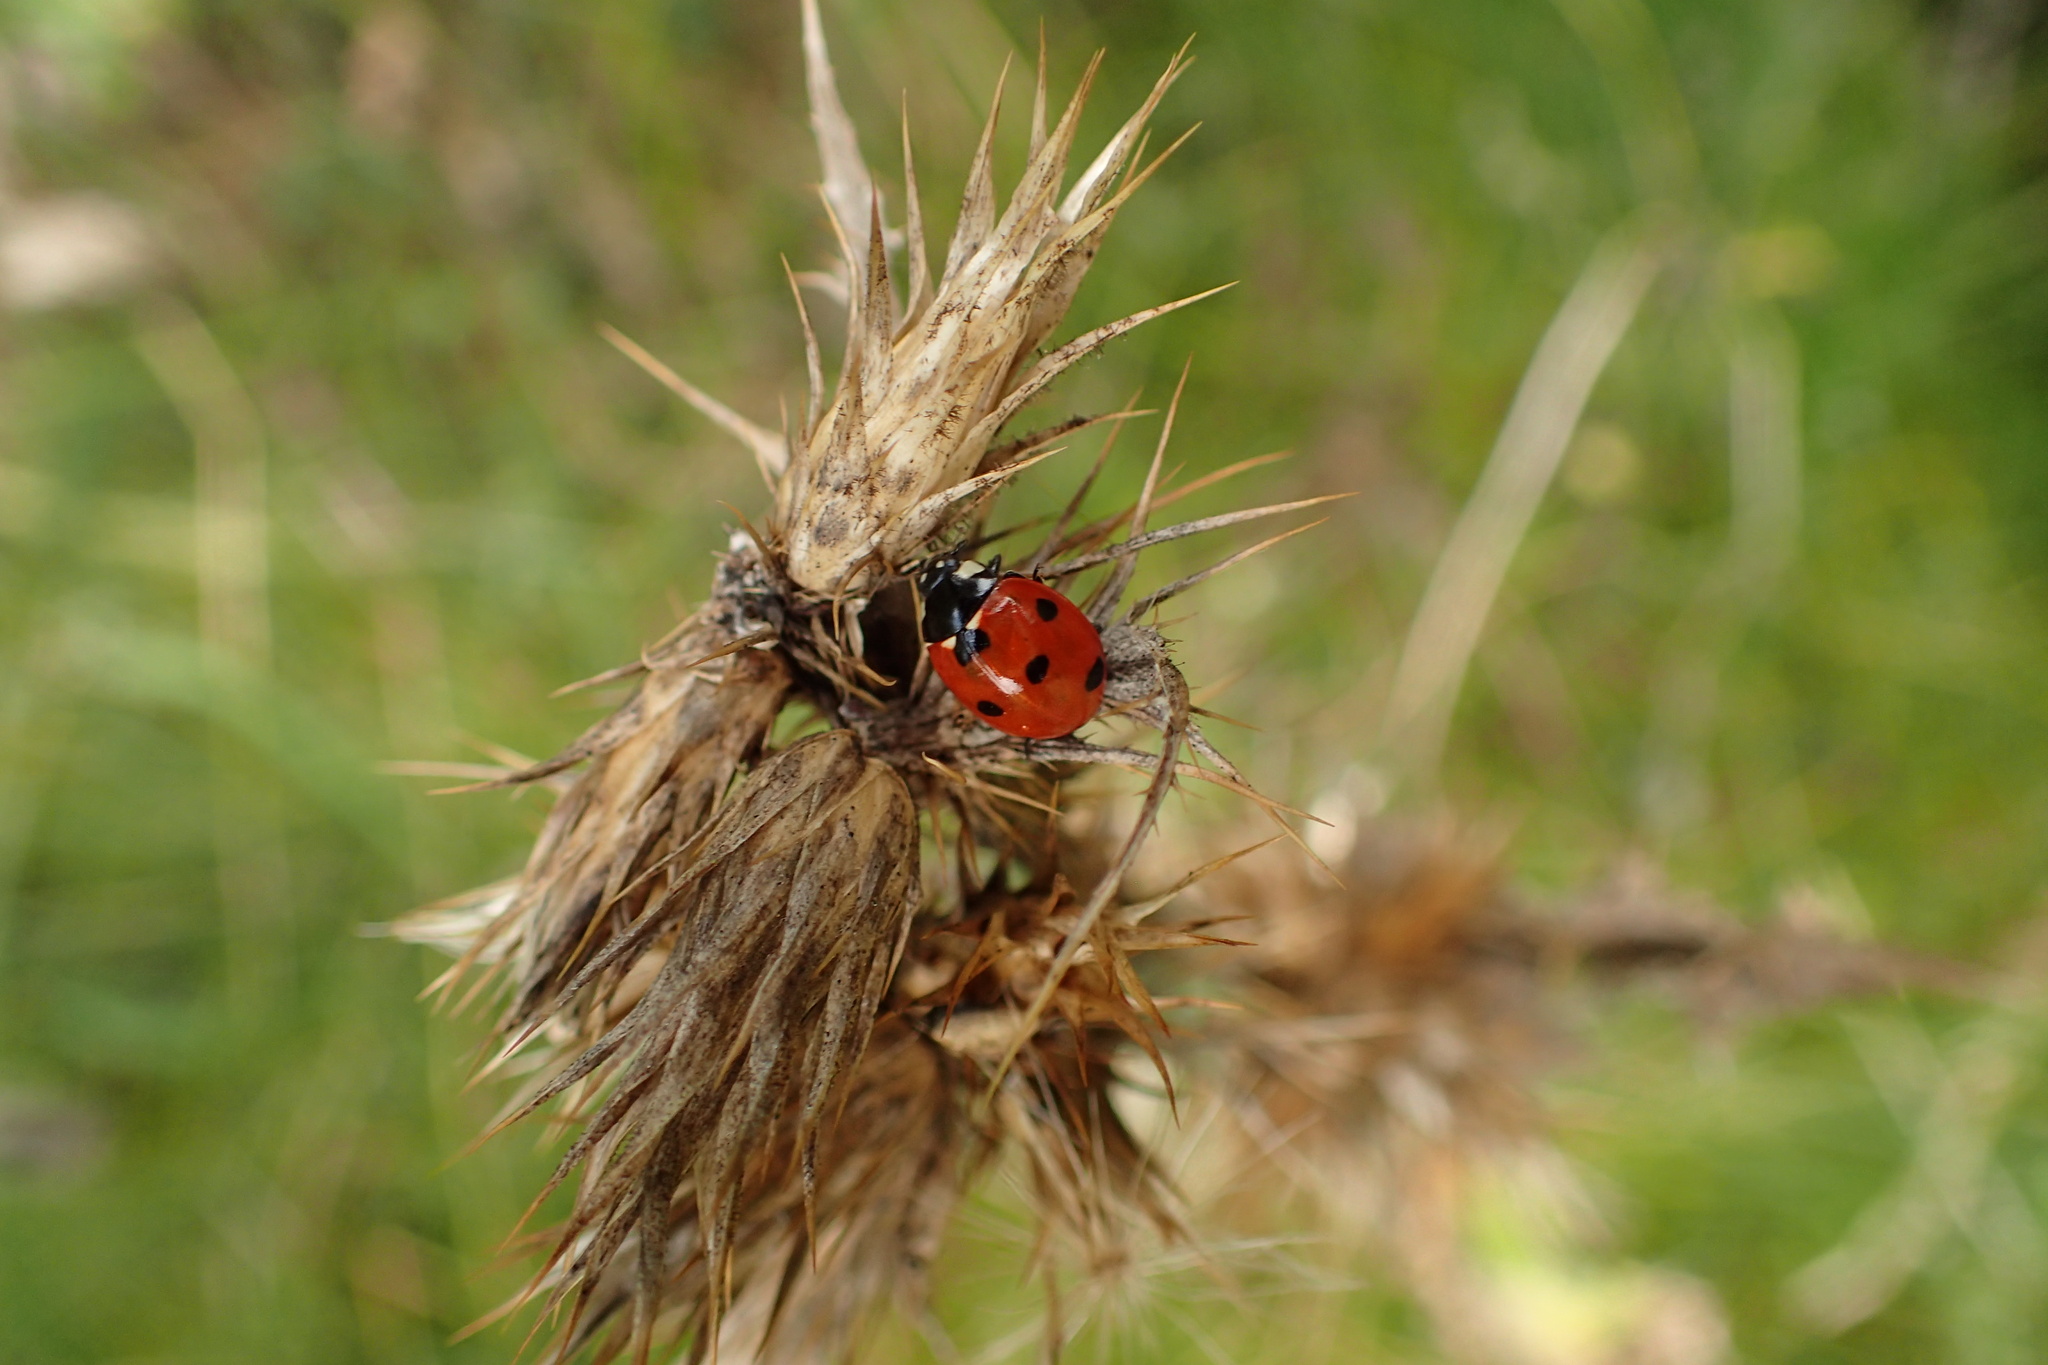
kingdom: Animalia
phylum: Arthropoda
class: Insecta
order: Coleoptera
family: Coccinellidae
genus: Coccinella
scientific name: Coccinella septempunctata
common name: Sevenspotted lady beetle
